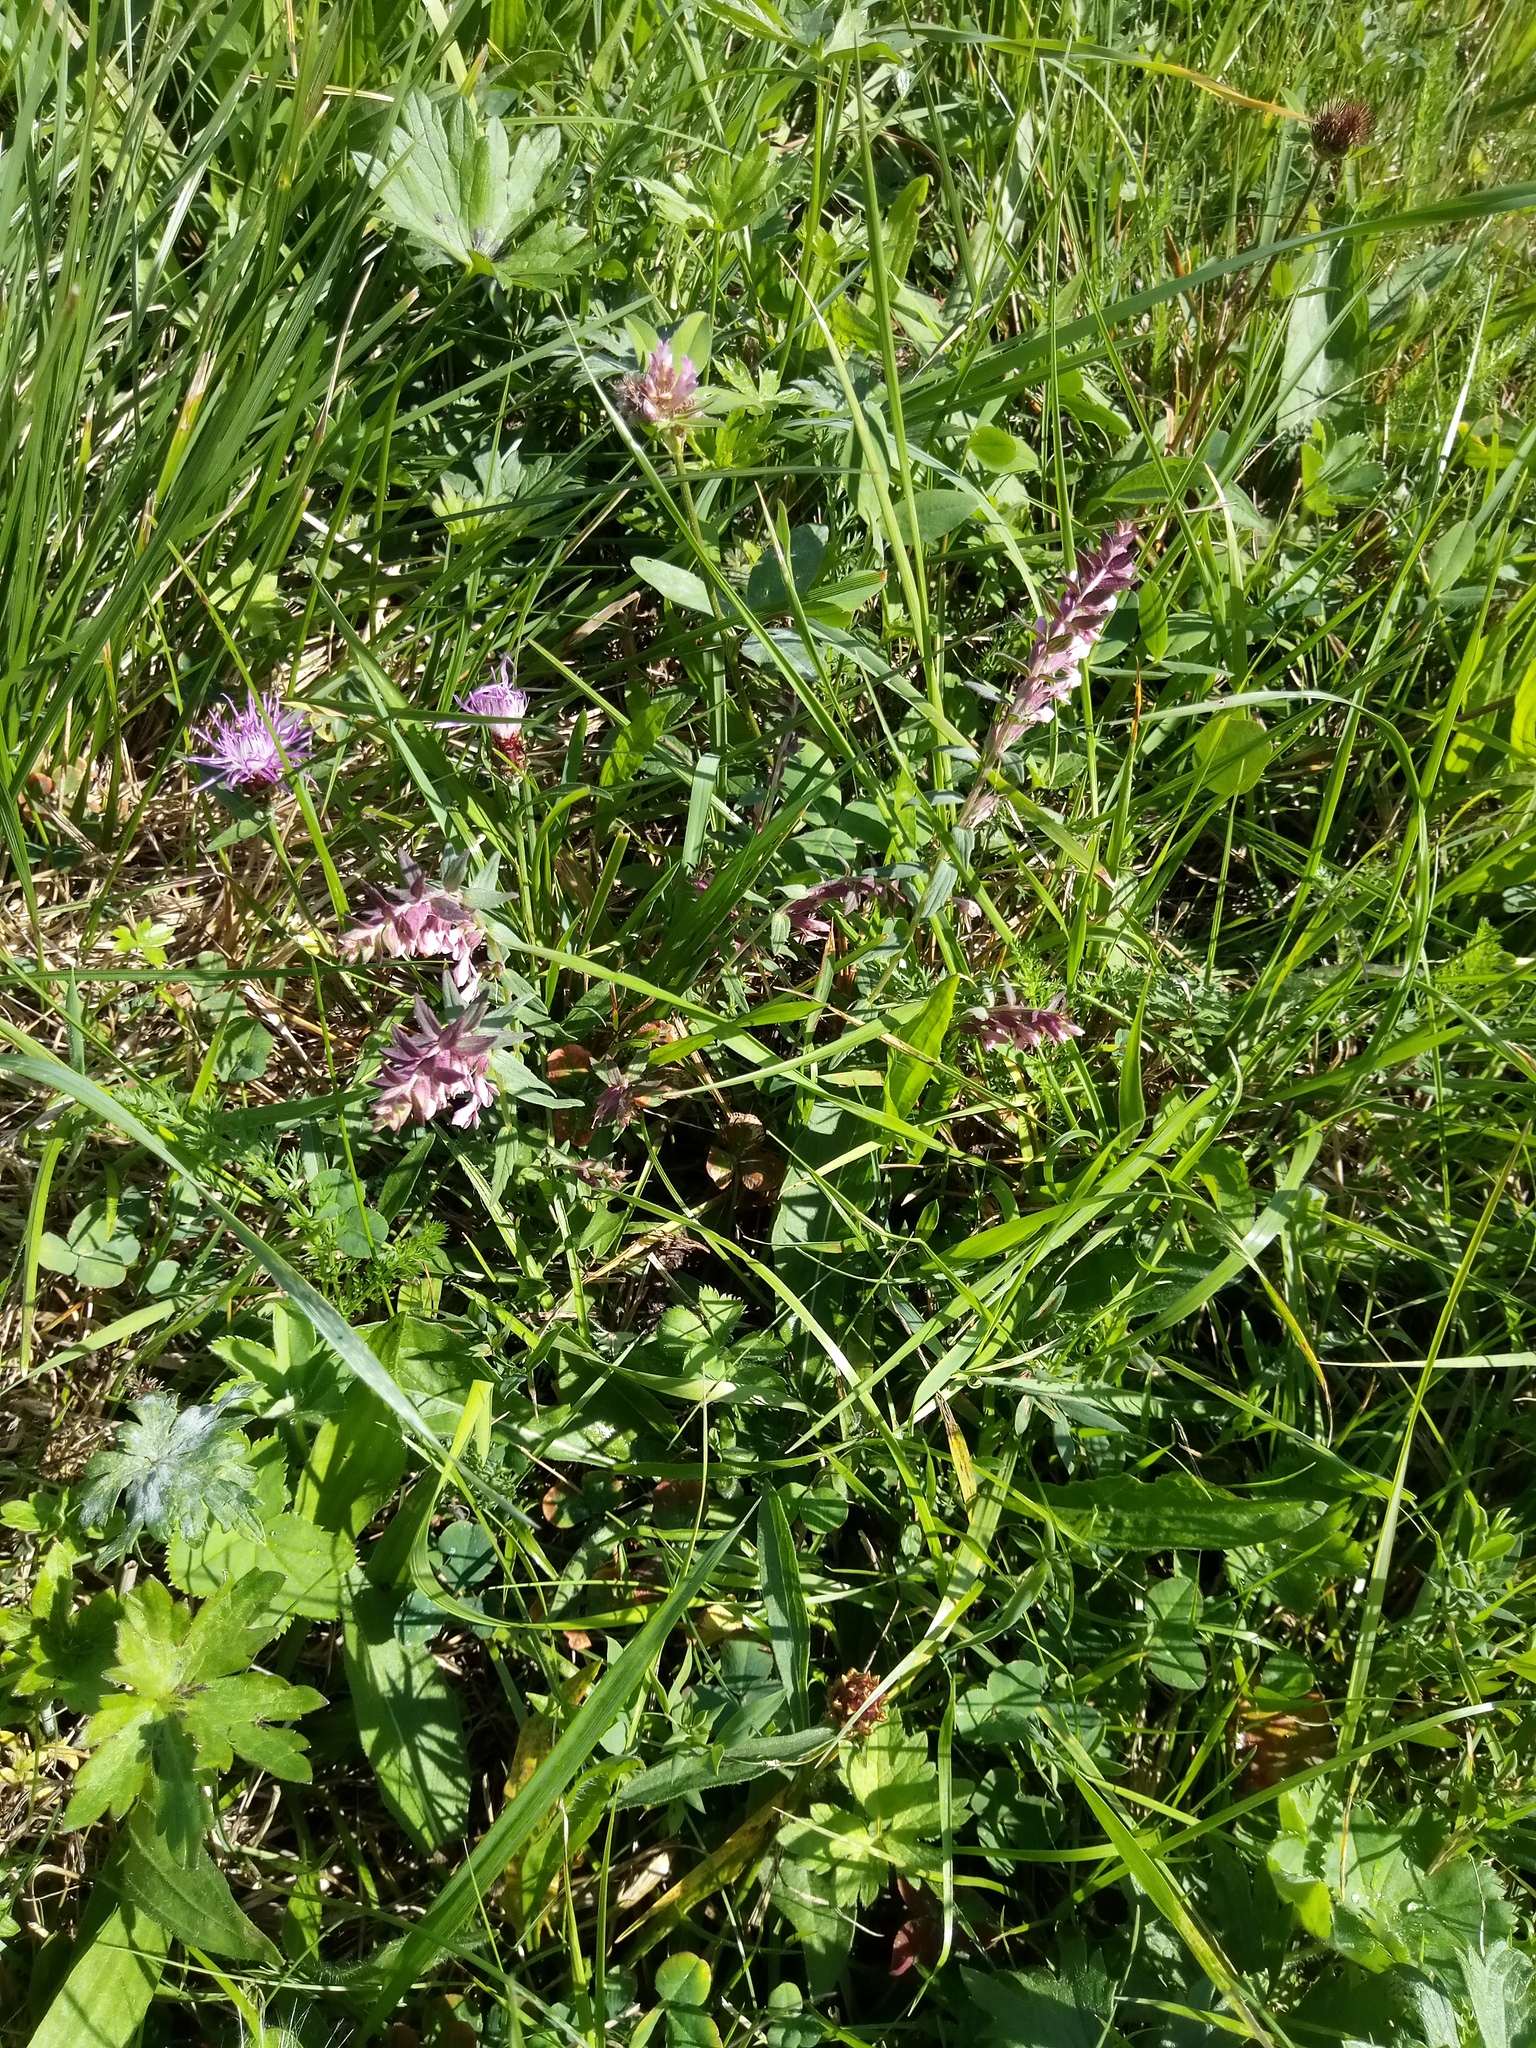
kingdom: Plantae
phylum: Tracheophyta
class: Magnoliopsida
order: Lamiales
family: Orobanchaceae
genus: Odontites
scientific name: Odontites vulgaris
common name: Broomrape
